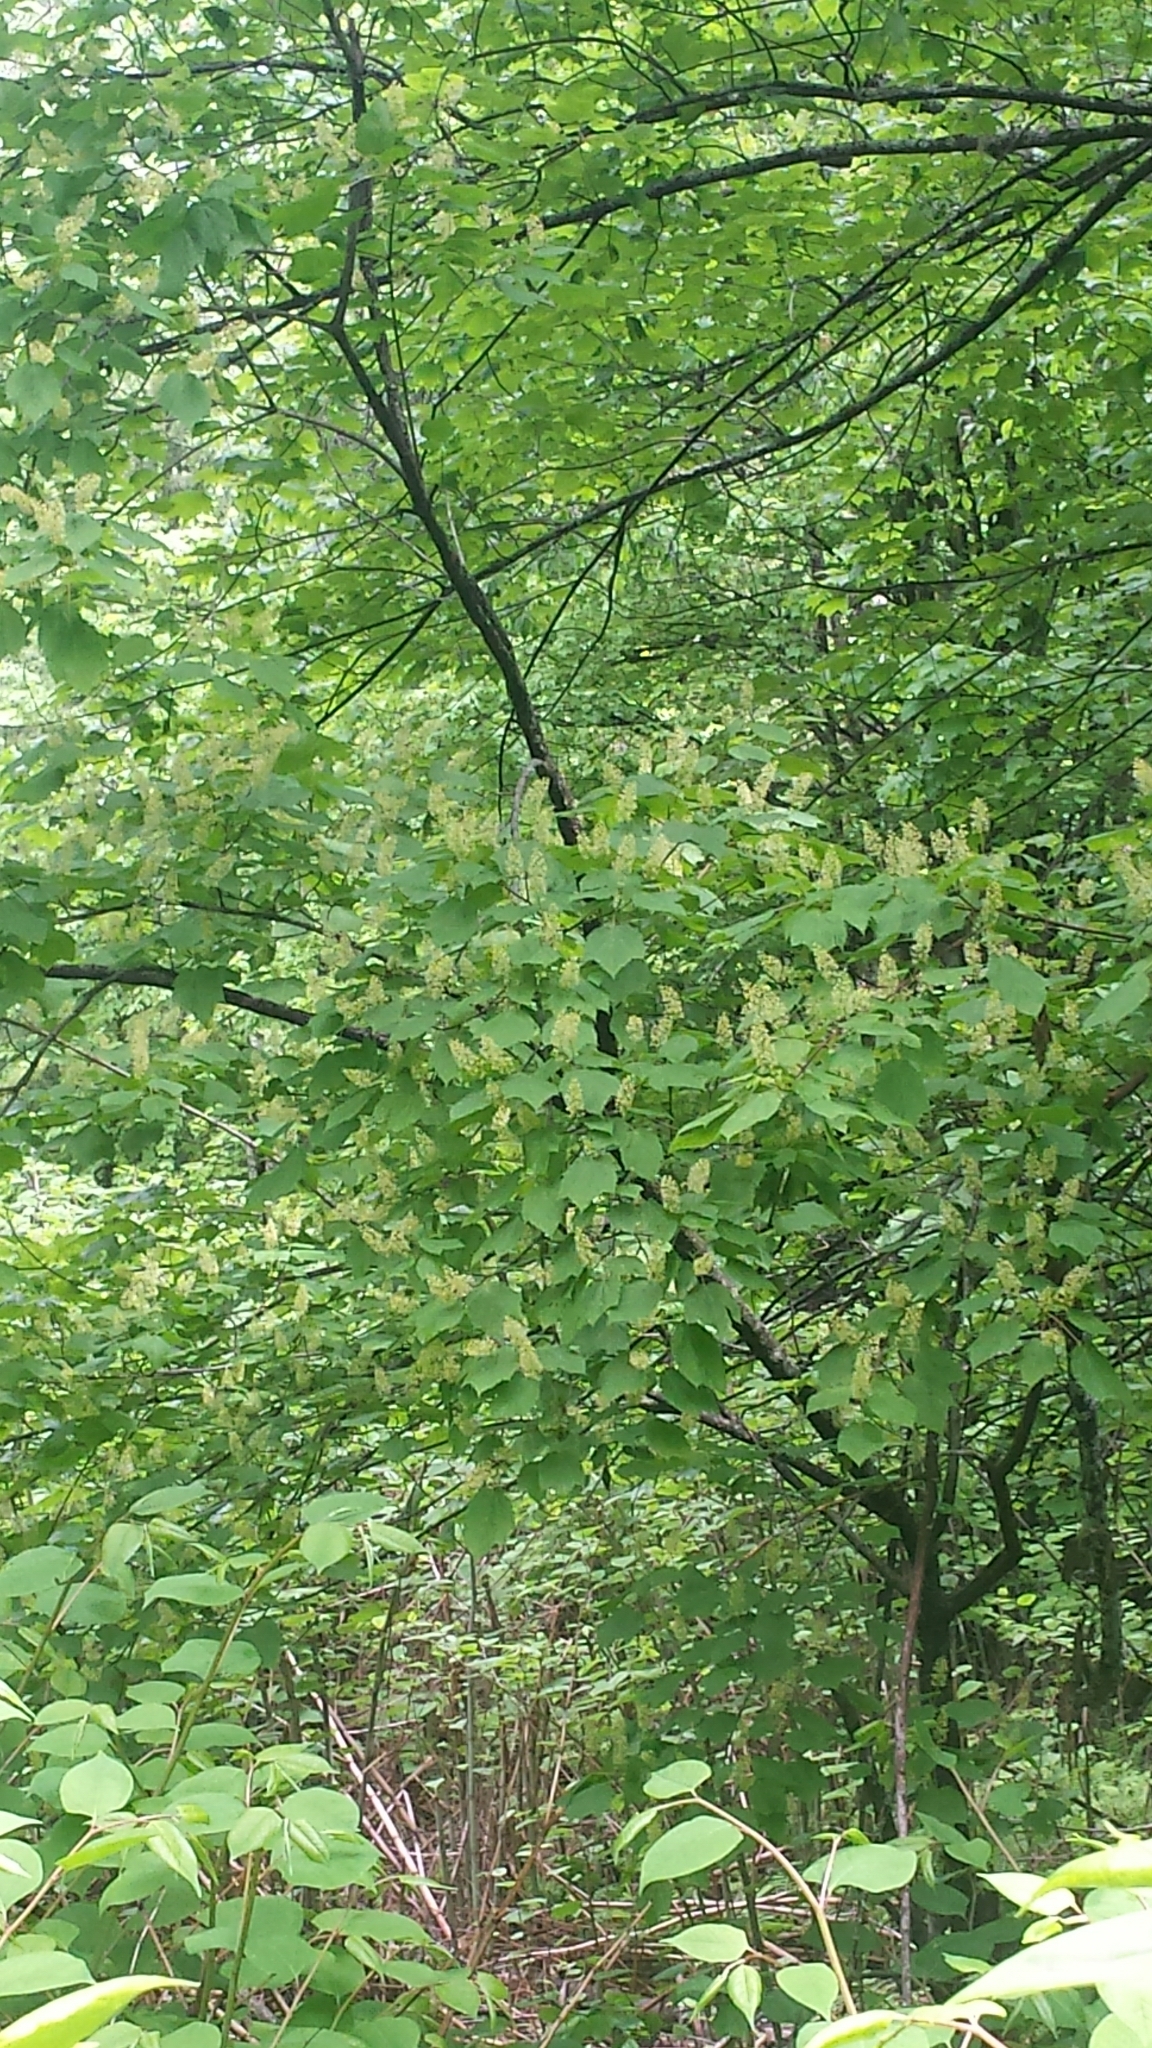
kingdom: Plantae
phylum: Tracheophyta
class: Magnoliopsida
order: Sapindales
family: Sapindaceae
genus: Acer
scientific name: Acer spicatum
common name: Mountain maple
